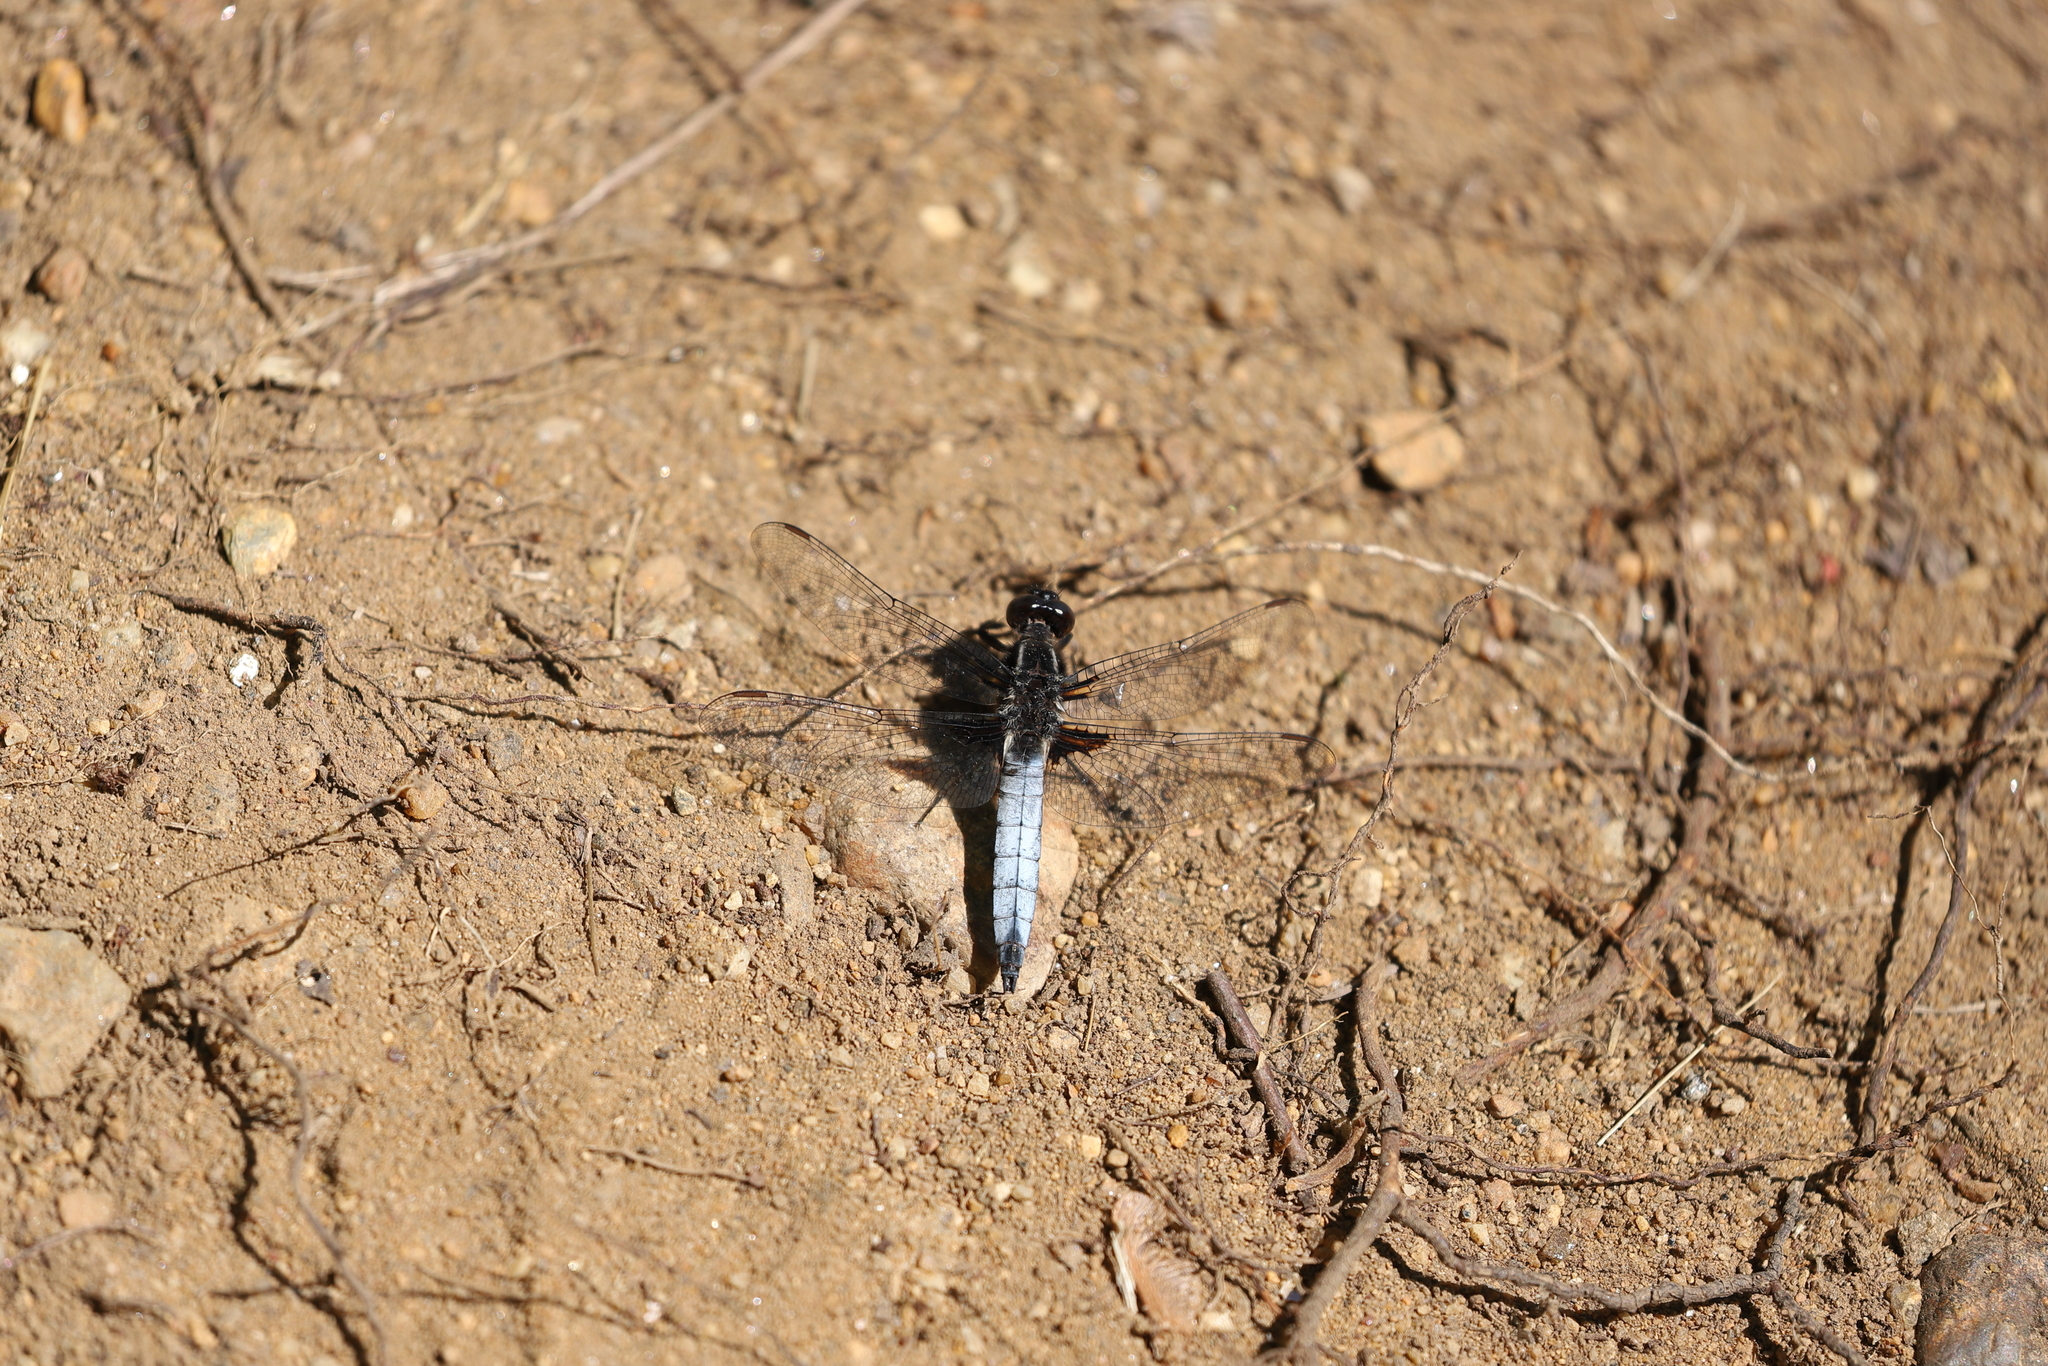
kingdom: Animalia
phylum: Arthropoda
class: Insecta
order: Odonata
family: Libellulidae
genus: Ladona
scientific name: Ladona exusta
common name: Libellule embrasée
